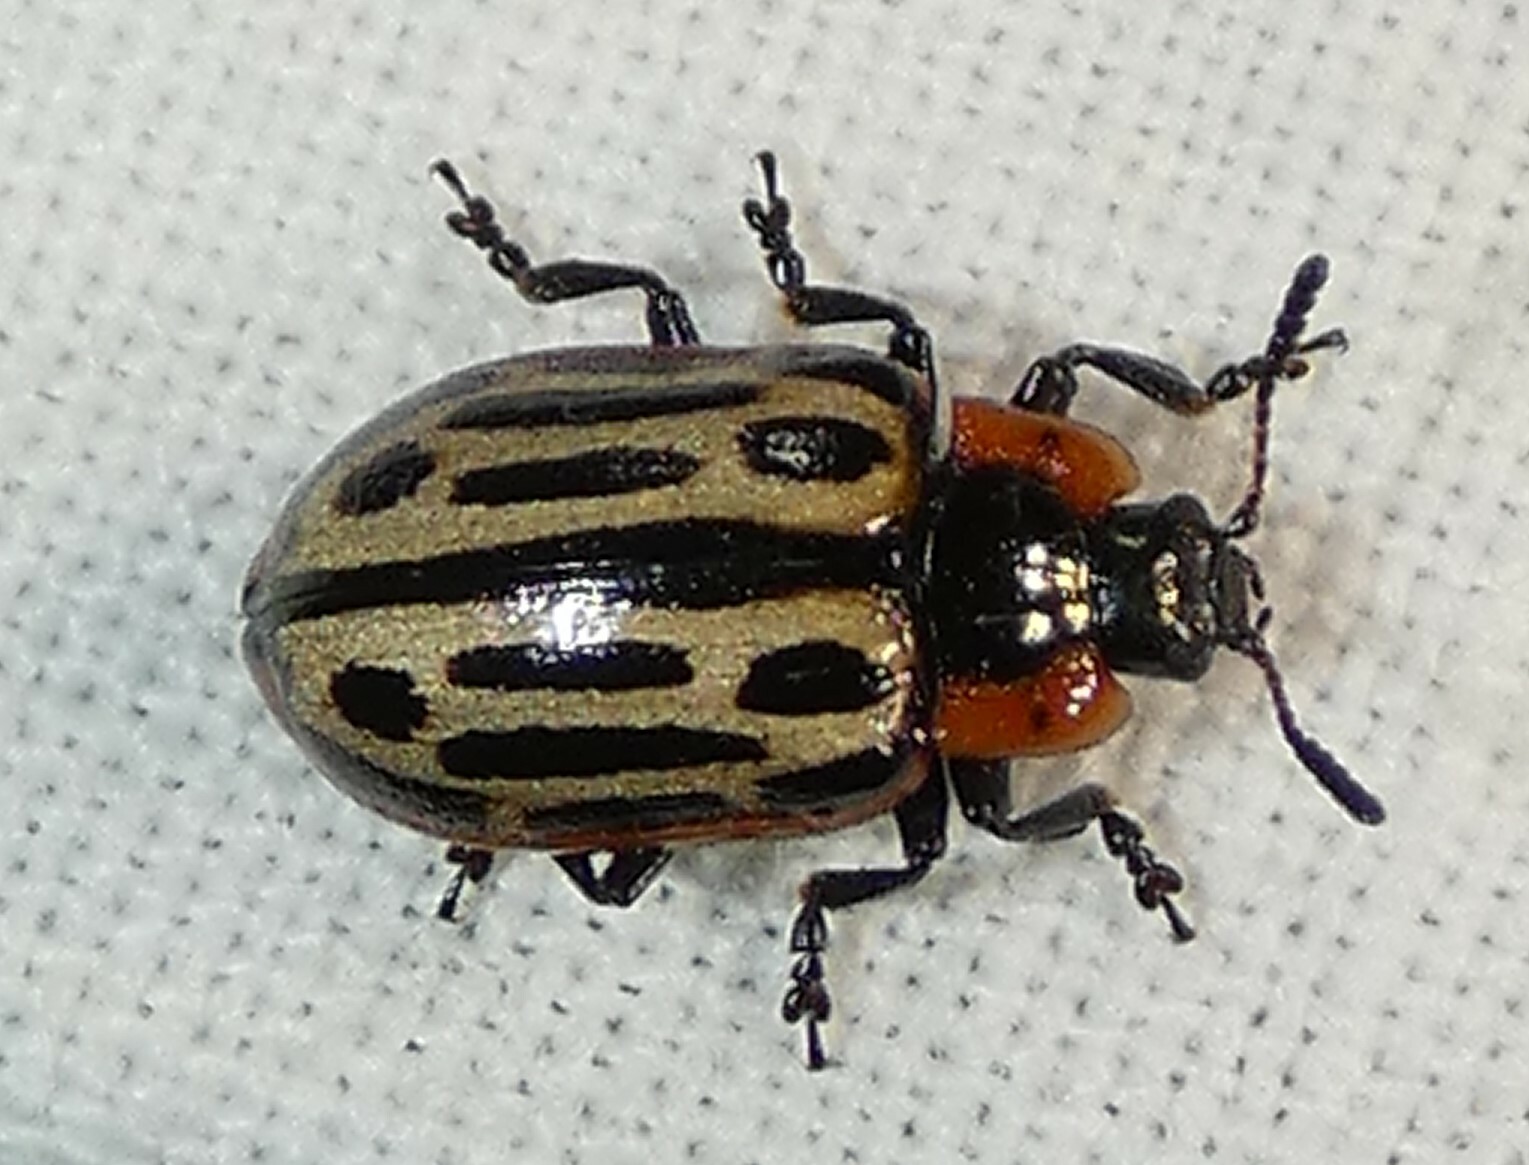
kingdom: Animalia
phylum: Arthropoda
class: Insecta
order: Coleoptera
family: Chrysomelidae
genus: Aethiopocassis
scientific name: Aethiopocassis scripta
